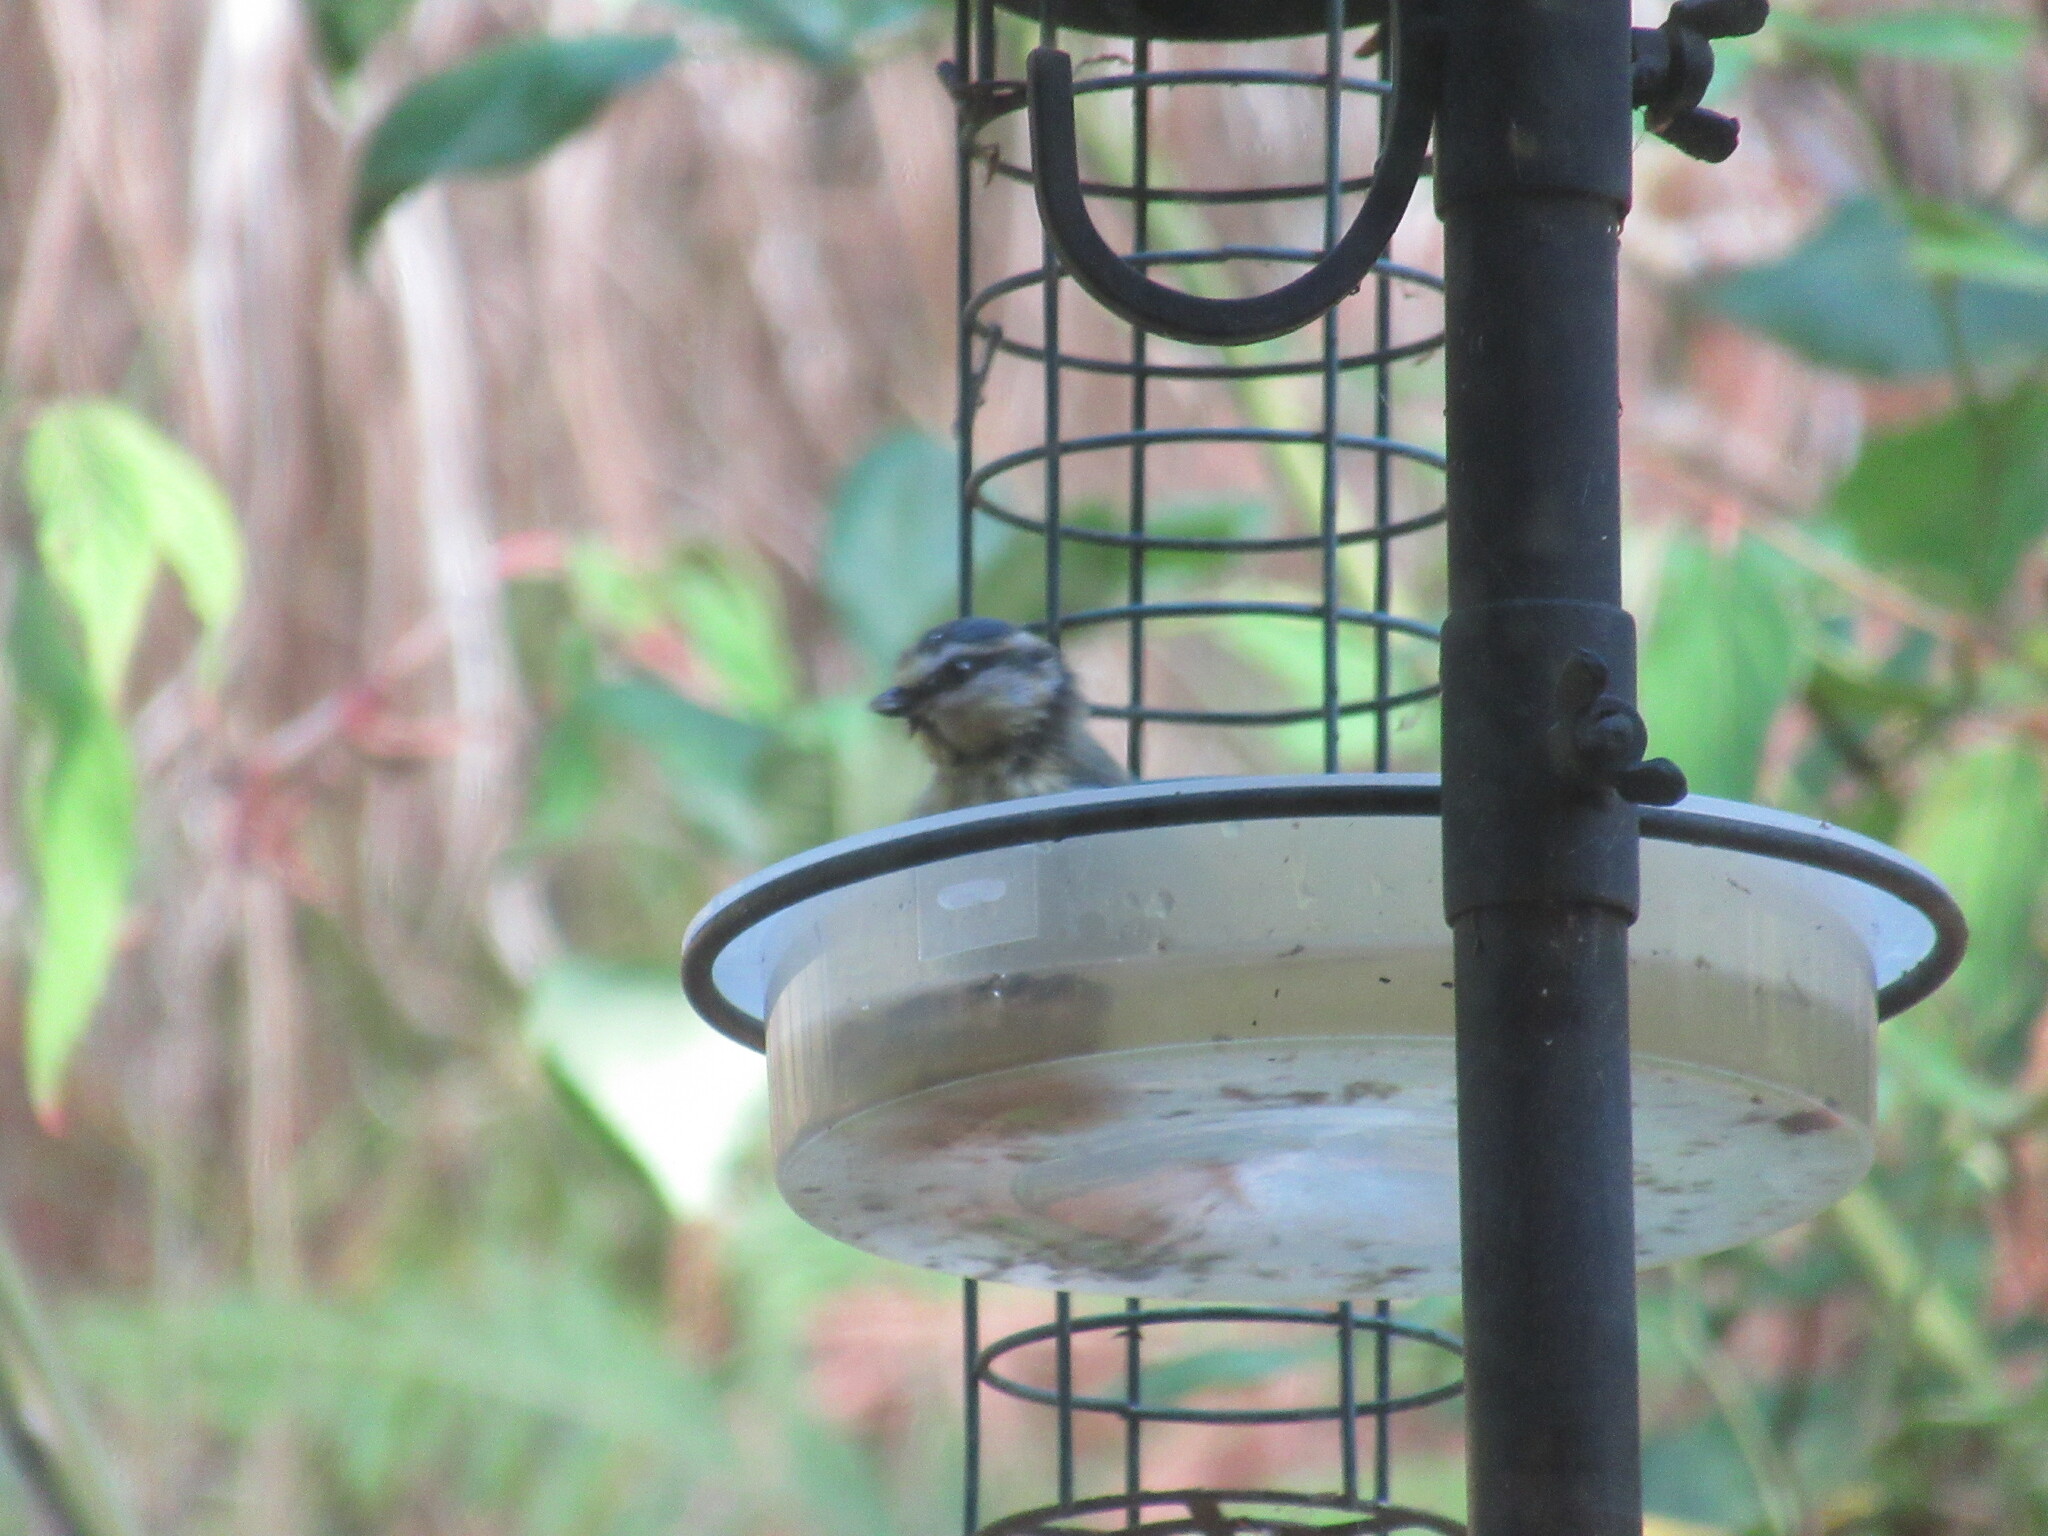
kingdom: Animalia
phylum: Chordata
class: Aves
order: Passeriformes
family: Paridae
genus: Cyanistes
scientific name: Cyanistes caeruleus
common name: Eurasian blue tit
